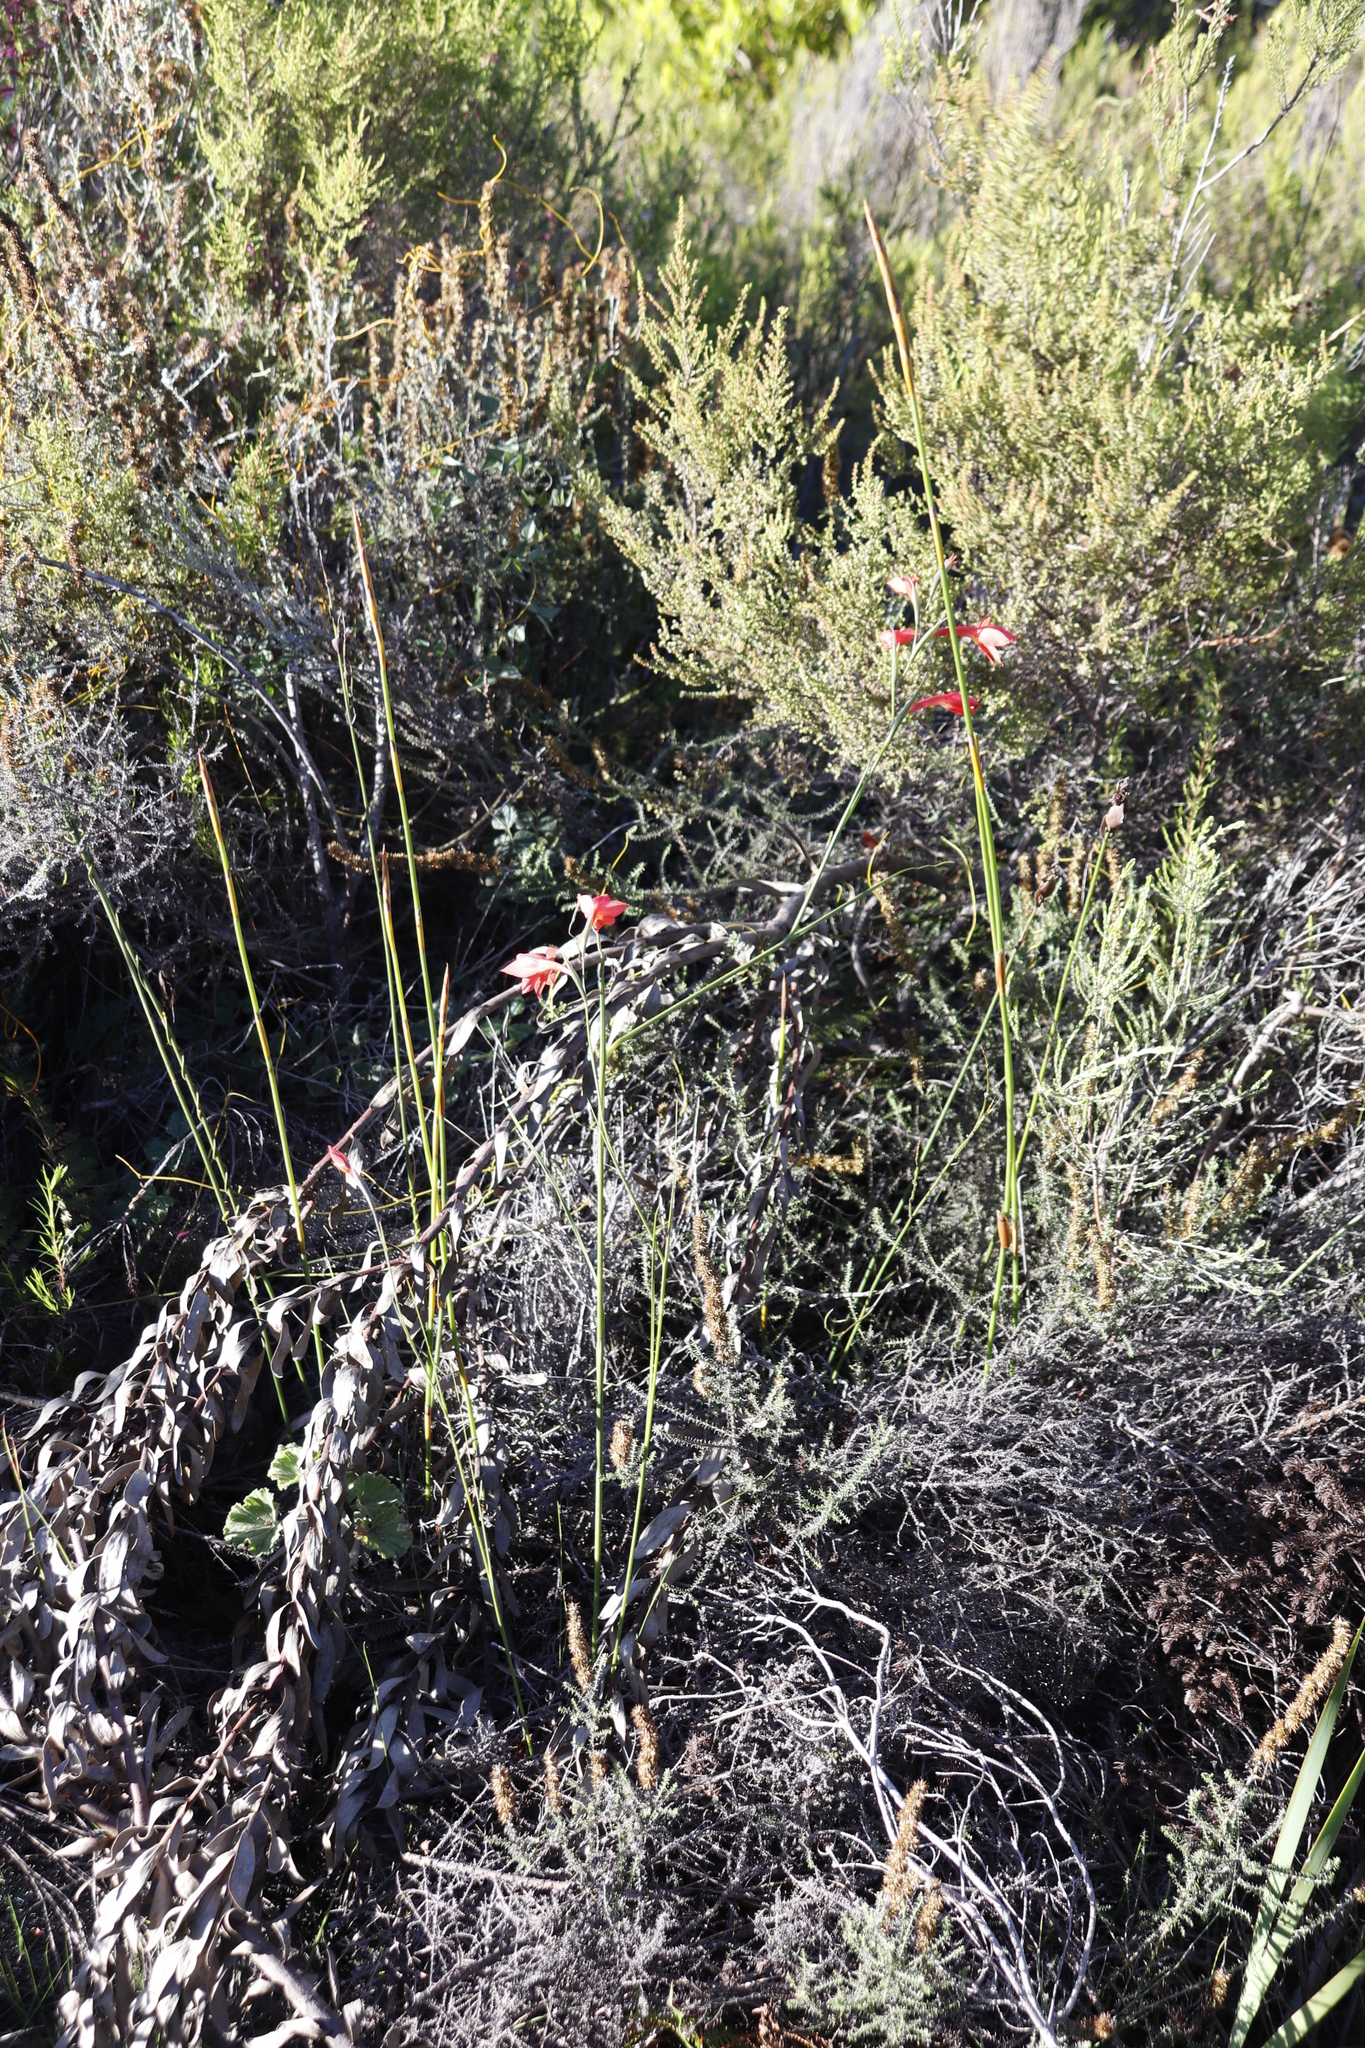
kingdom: Plantae
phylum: Tracheophyta
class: Liliopsida
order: Asparagales
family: Iridaceae
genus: Gladiolus
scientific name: Gladiolus priorii
